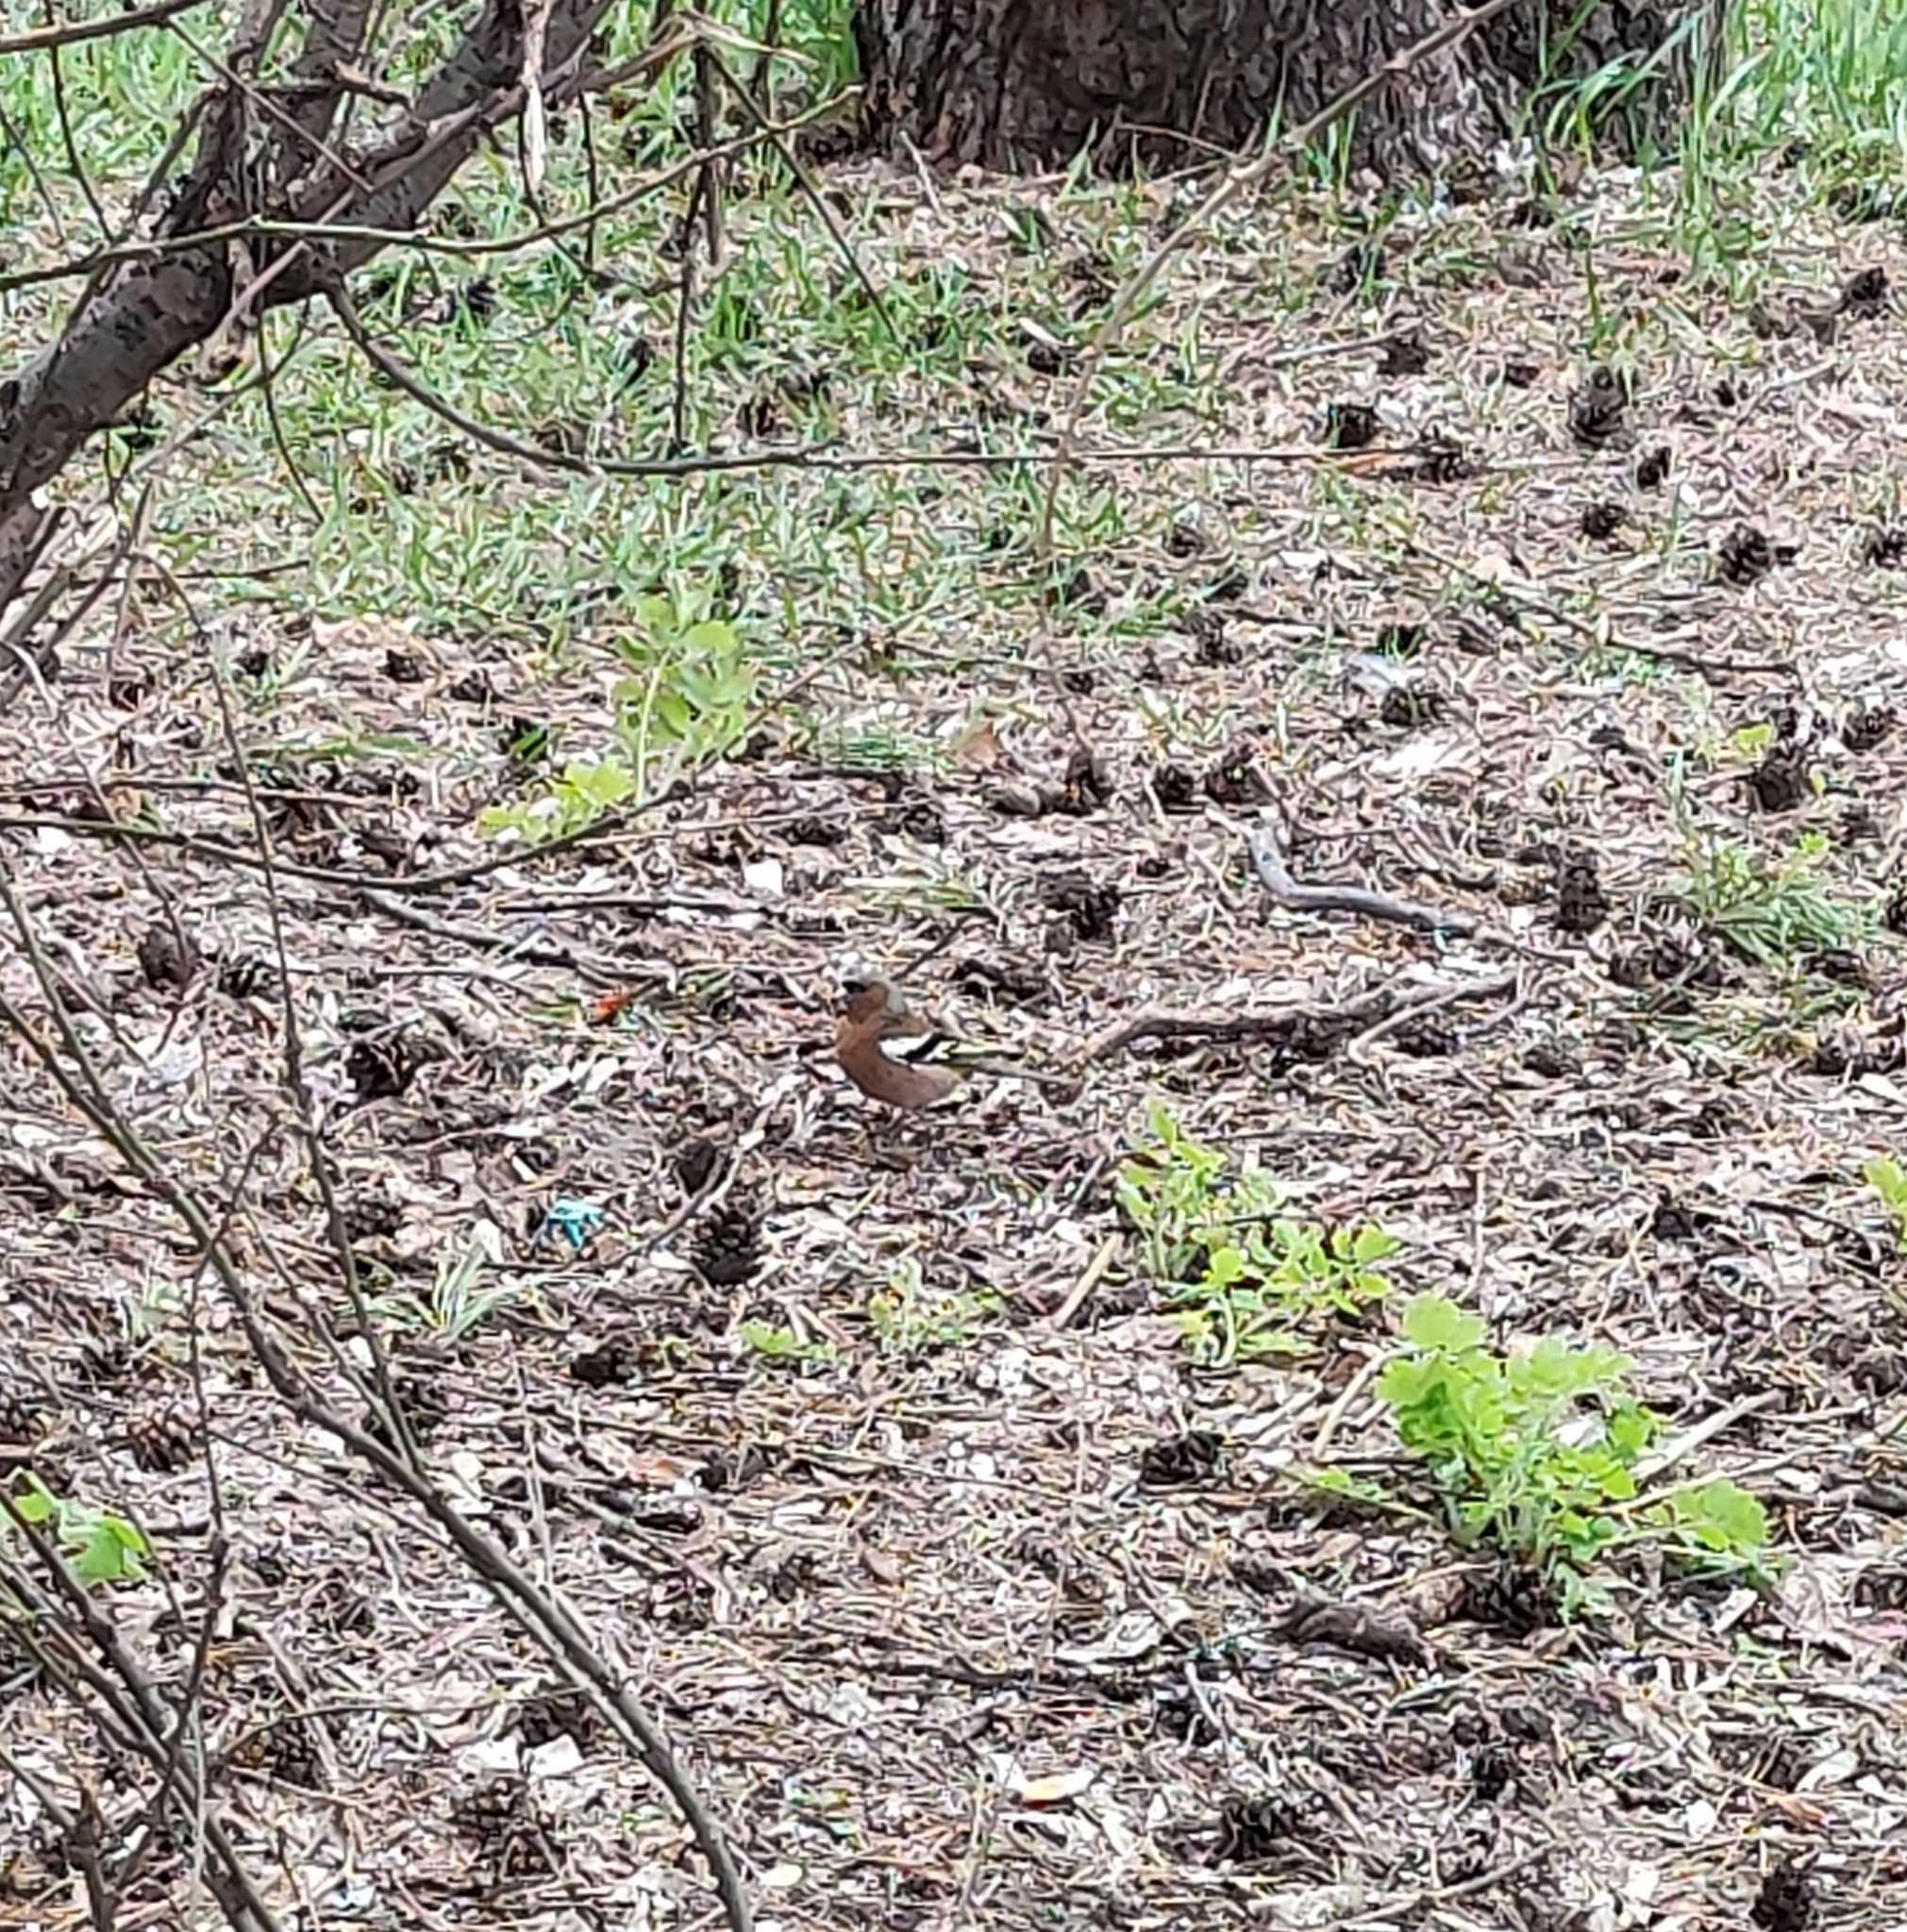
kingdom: Animalia
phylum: Chordata
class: Aves
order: Passeriformes
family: Fringillidae
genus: Fringilla
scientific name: Fringilla coelebs
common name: Common chaffinch
